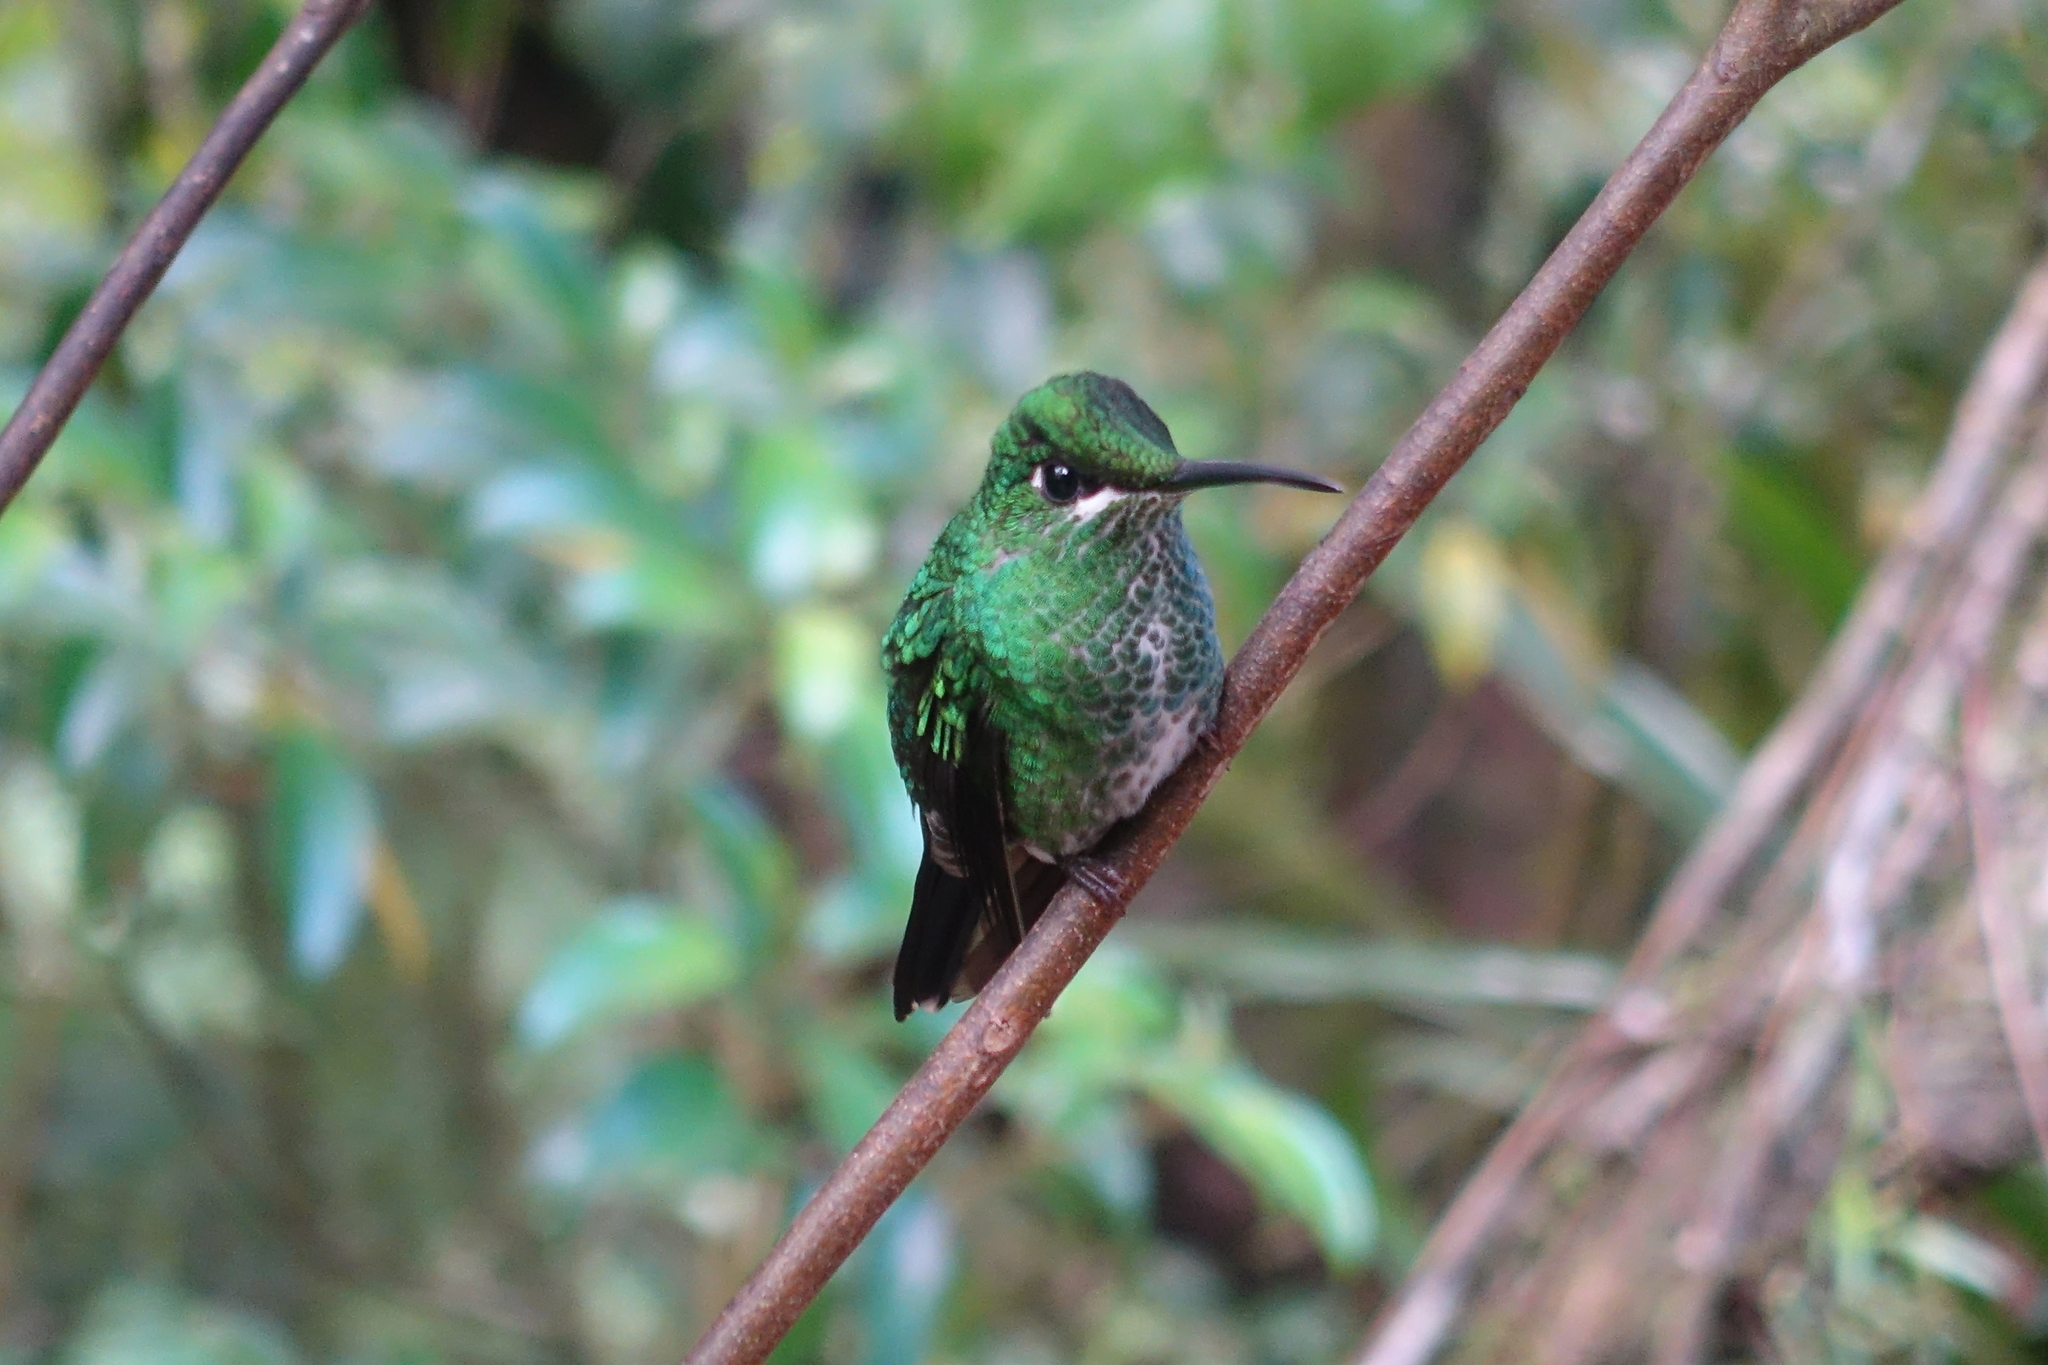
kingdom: Animalia
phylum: Chordata
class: Aves
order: Apodiformes
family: Trochilidae
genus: Heliodoxa
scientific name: Heliodoxa jacula
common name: Green-crowned brilliant
